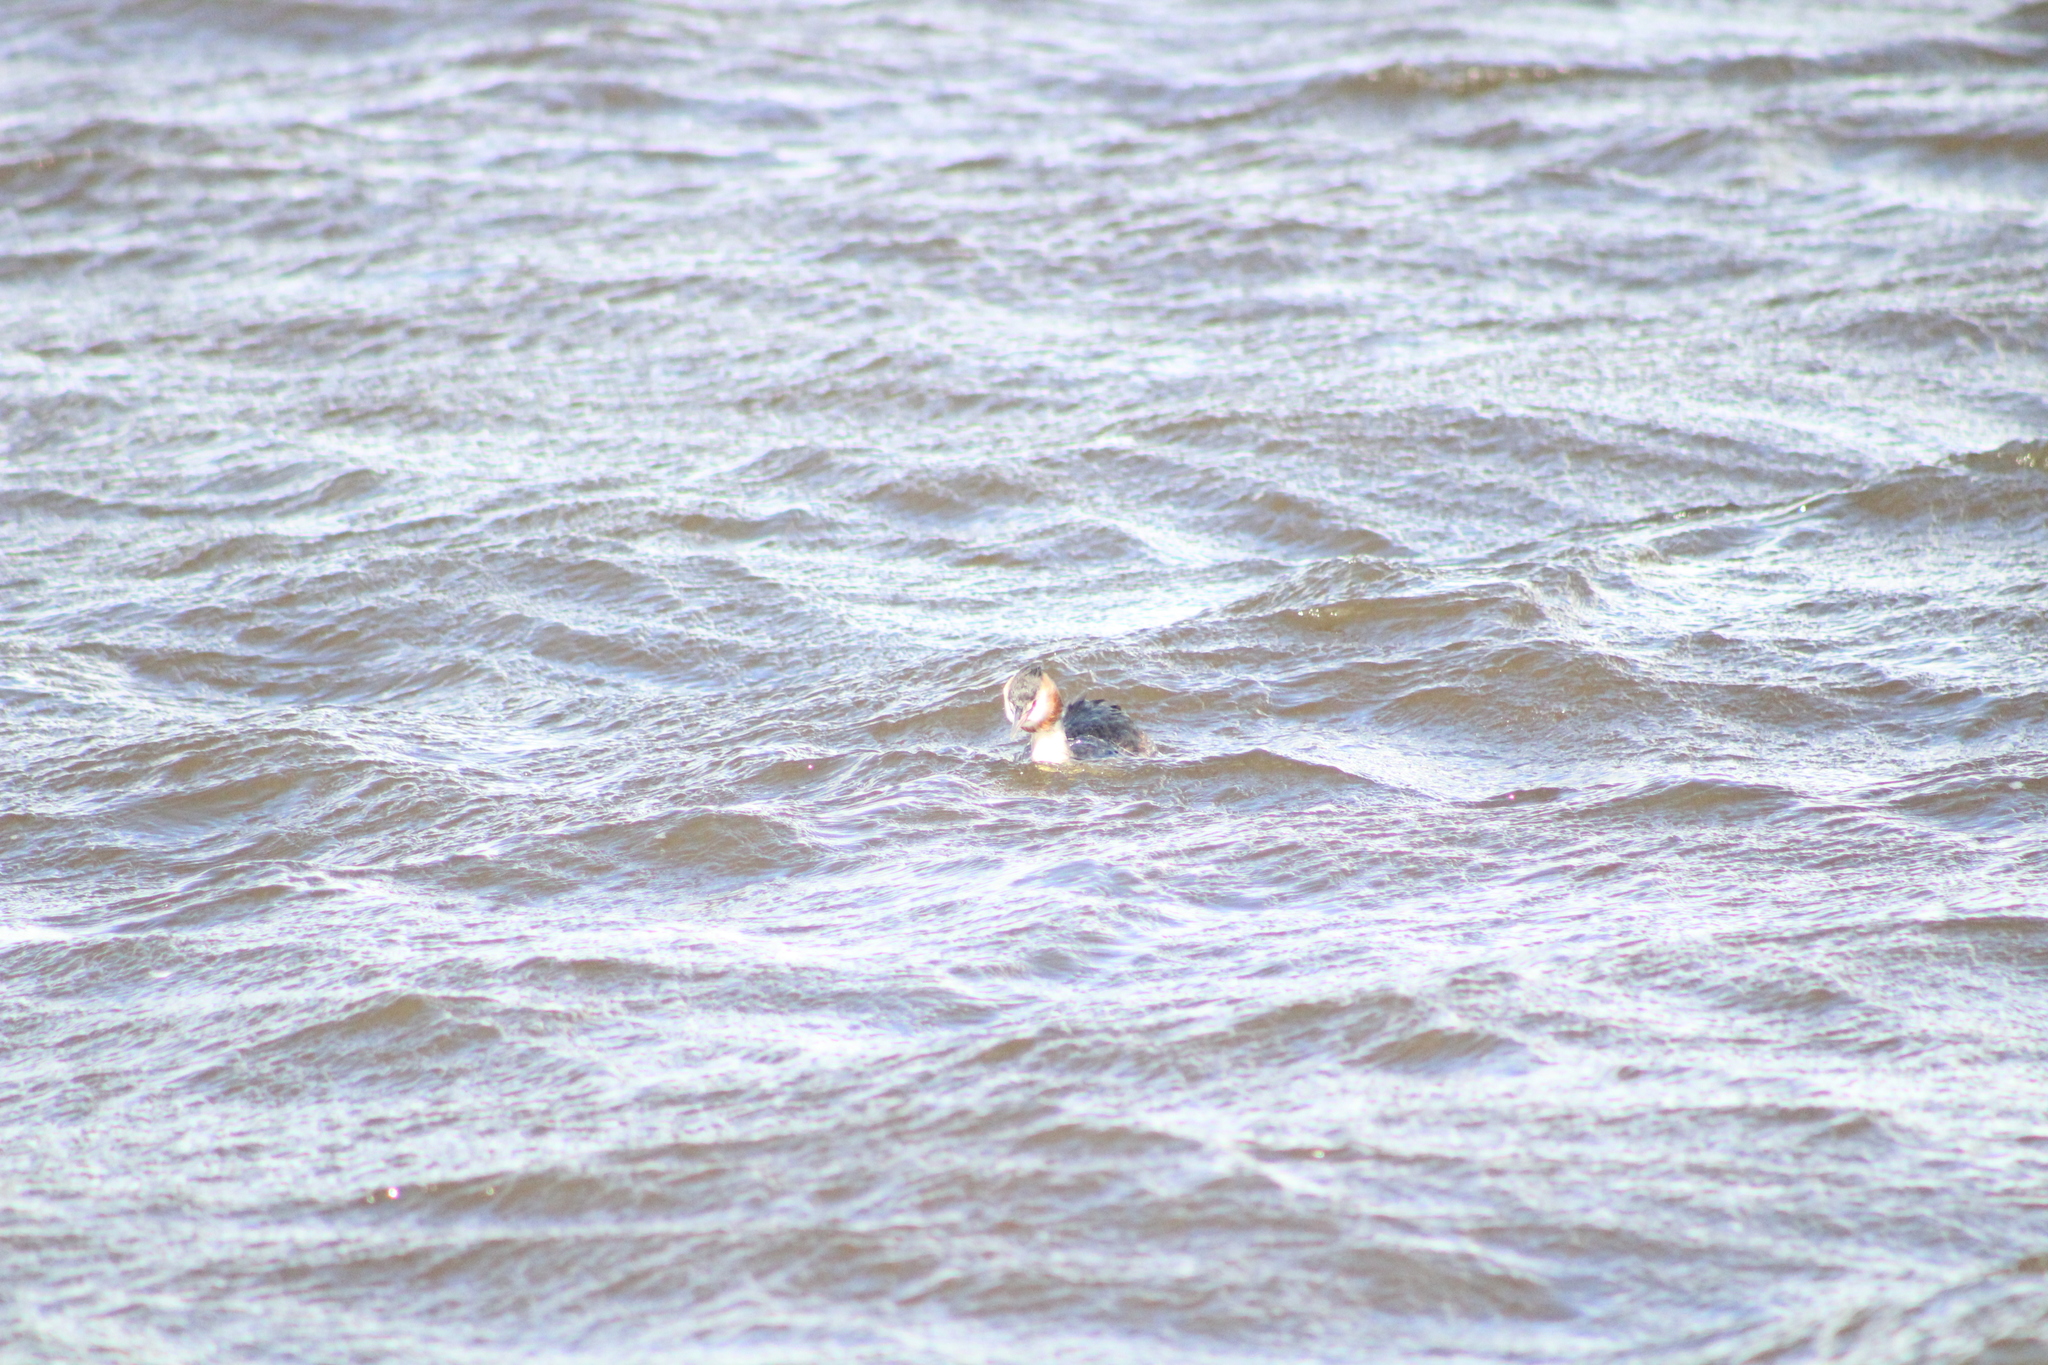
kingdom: Animalia
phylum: Chordata
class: Aves
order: Podicipediformes
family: Podicipedidae
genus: Podiceps
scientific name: Podiceps cristatus
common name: Great crested grebe
